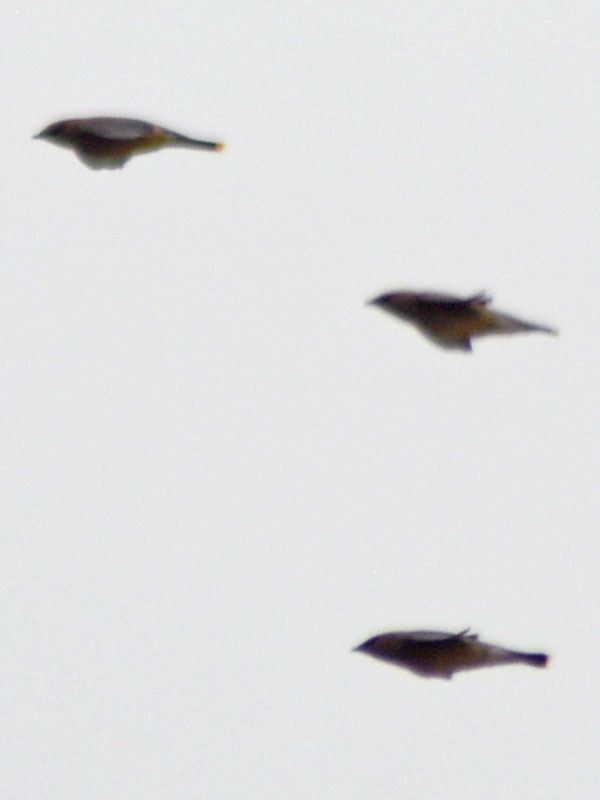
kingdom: Animalia
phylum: Chordata
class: Aves
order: Passeriformes
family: Bombycillidae
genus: Bombycilla
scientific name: Bombycilla cedrorum
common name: Cedar waxwing
